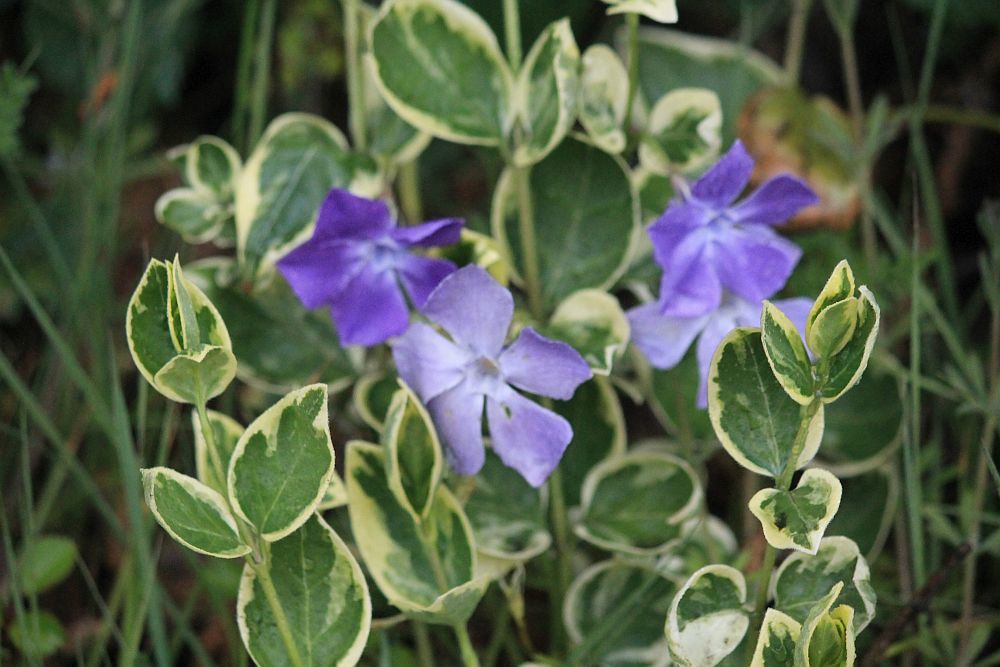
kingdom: Plantae
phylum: Tracheophyta
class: Magnoliopsida
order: Gentianales
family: Apocynaceae
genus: Vinca
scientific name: Vinca major
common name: Greater periwinkle
